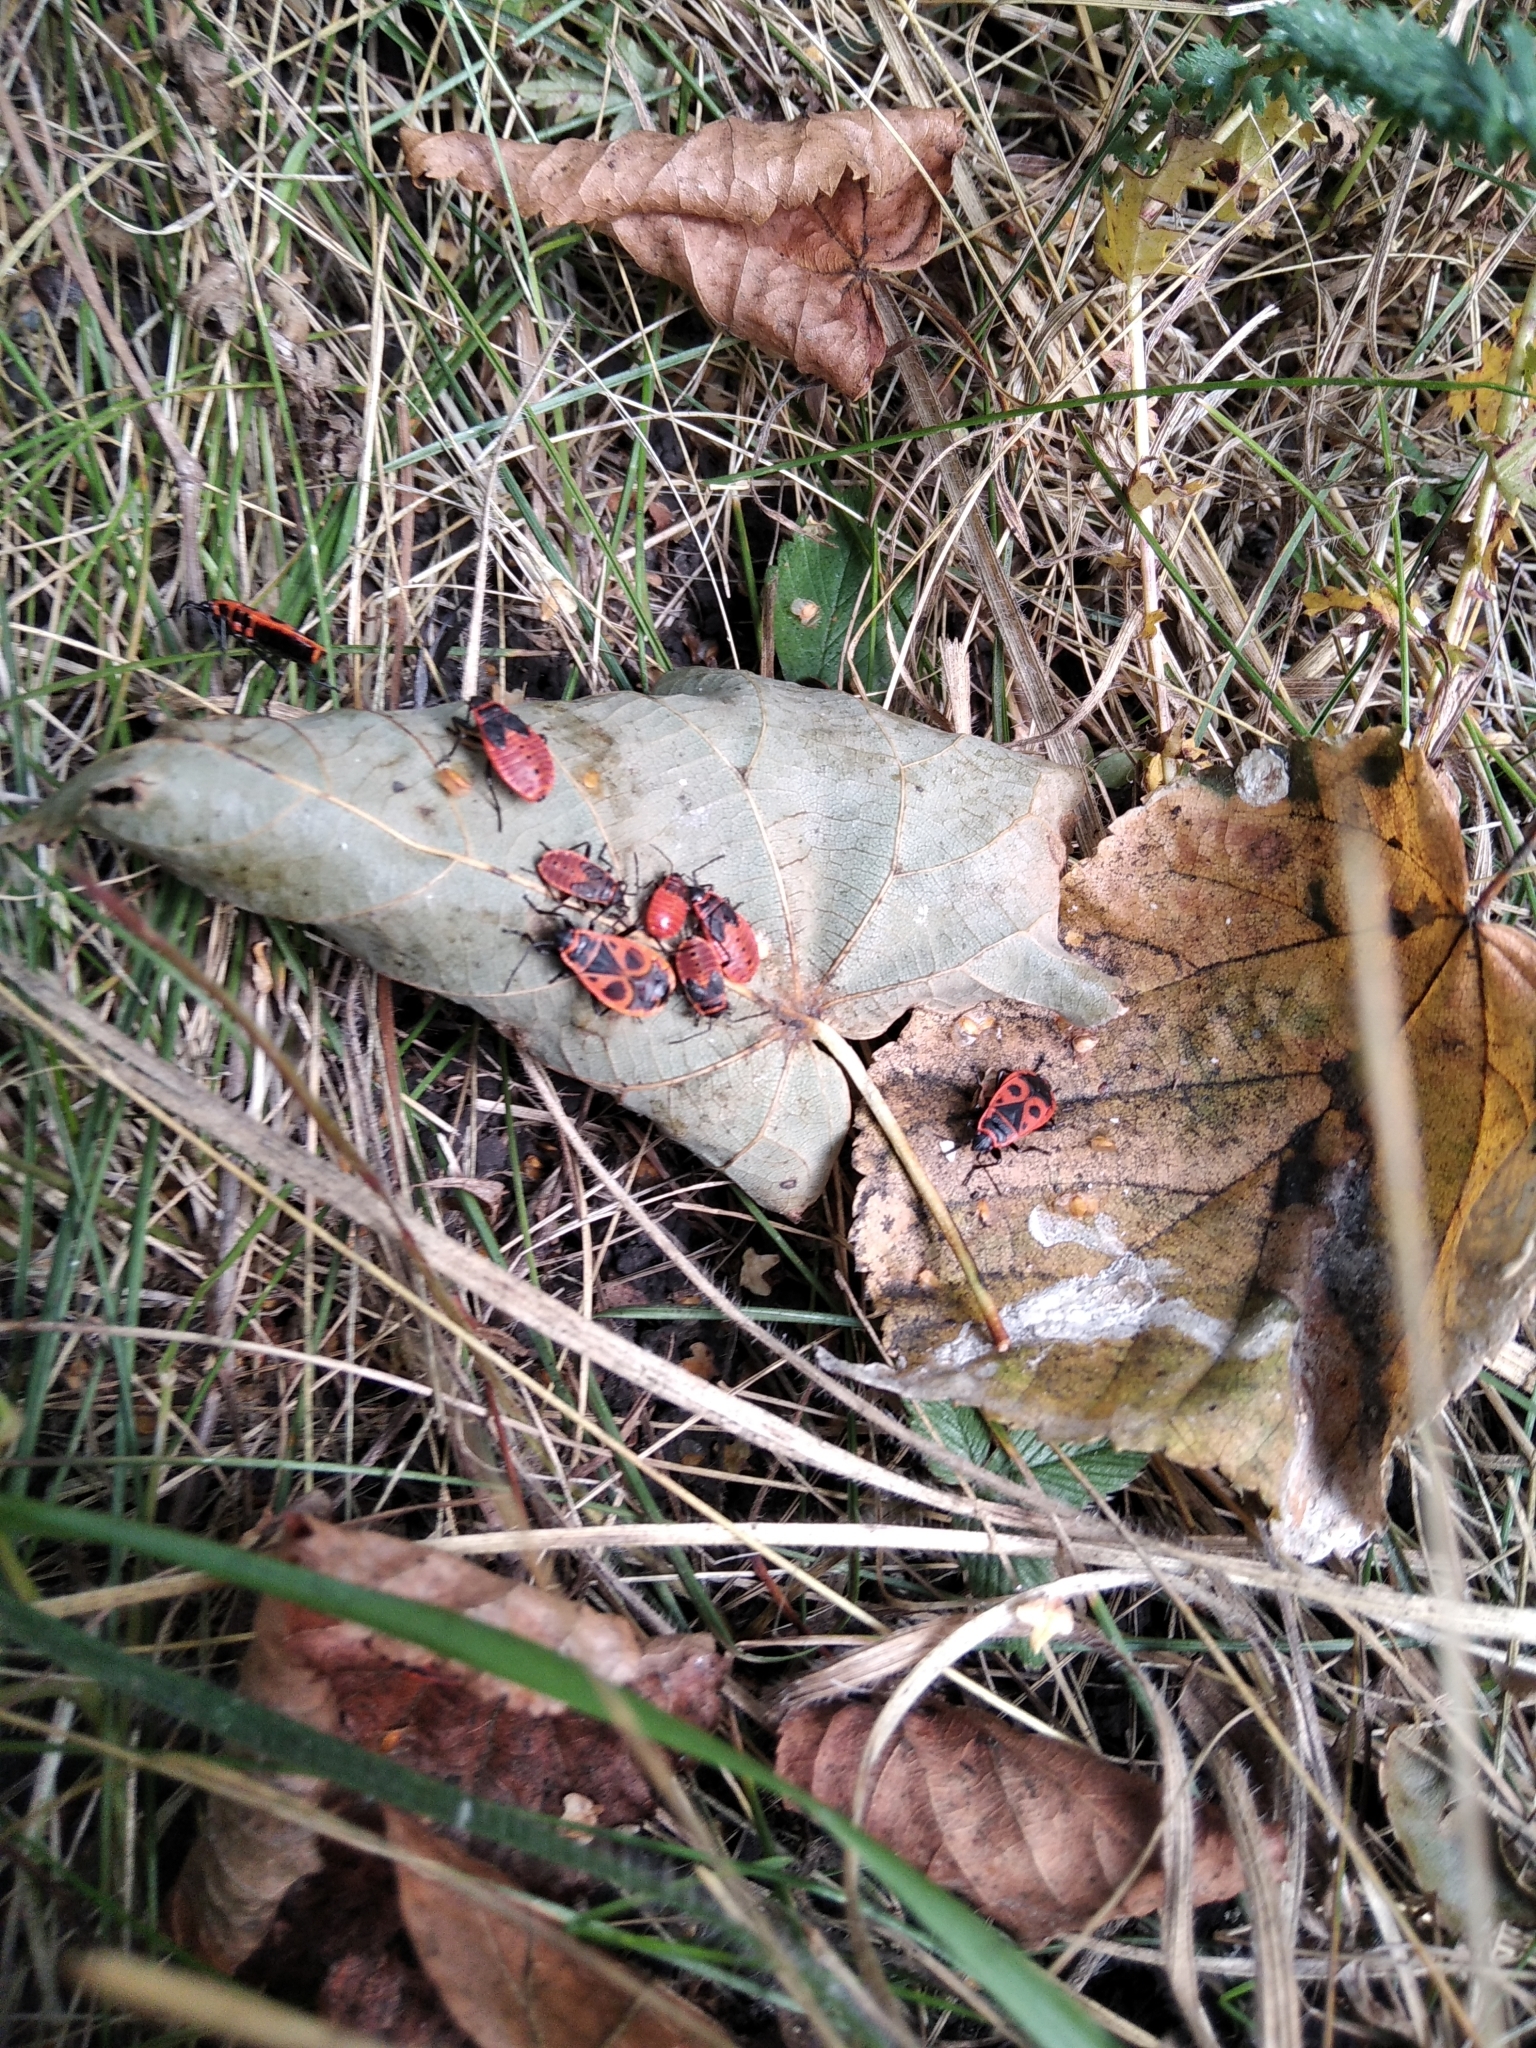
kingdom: Animalia
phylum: Arthropoda
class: Insecta
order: Hemiptera
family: Pyrrhocoridae
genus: Pyrrhocoris
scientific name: Pyrrhocoris apterus
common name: Firebug
